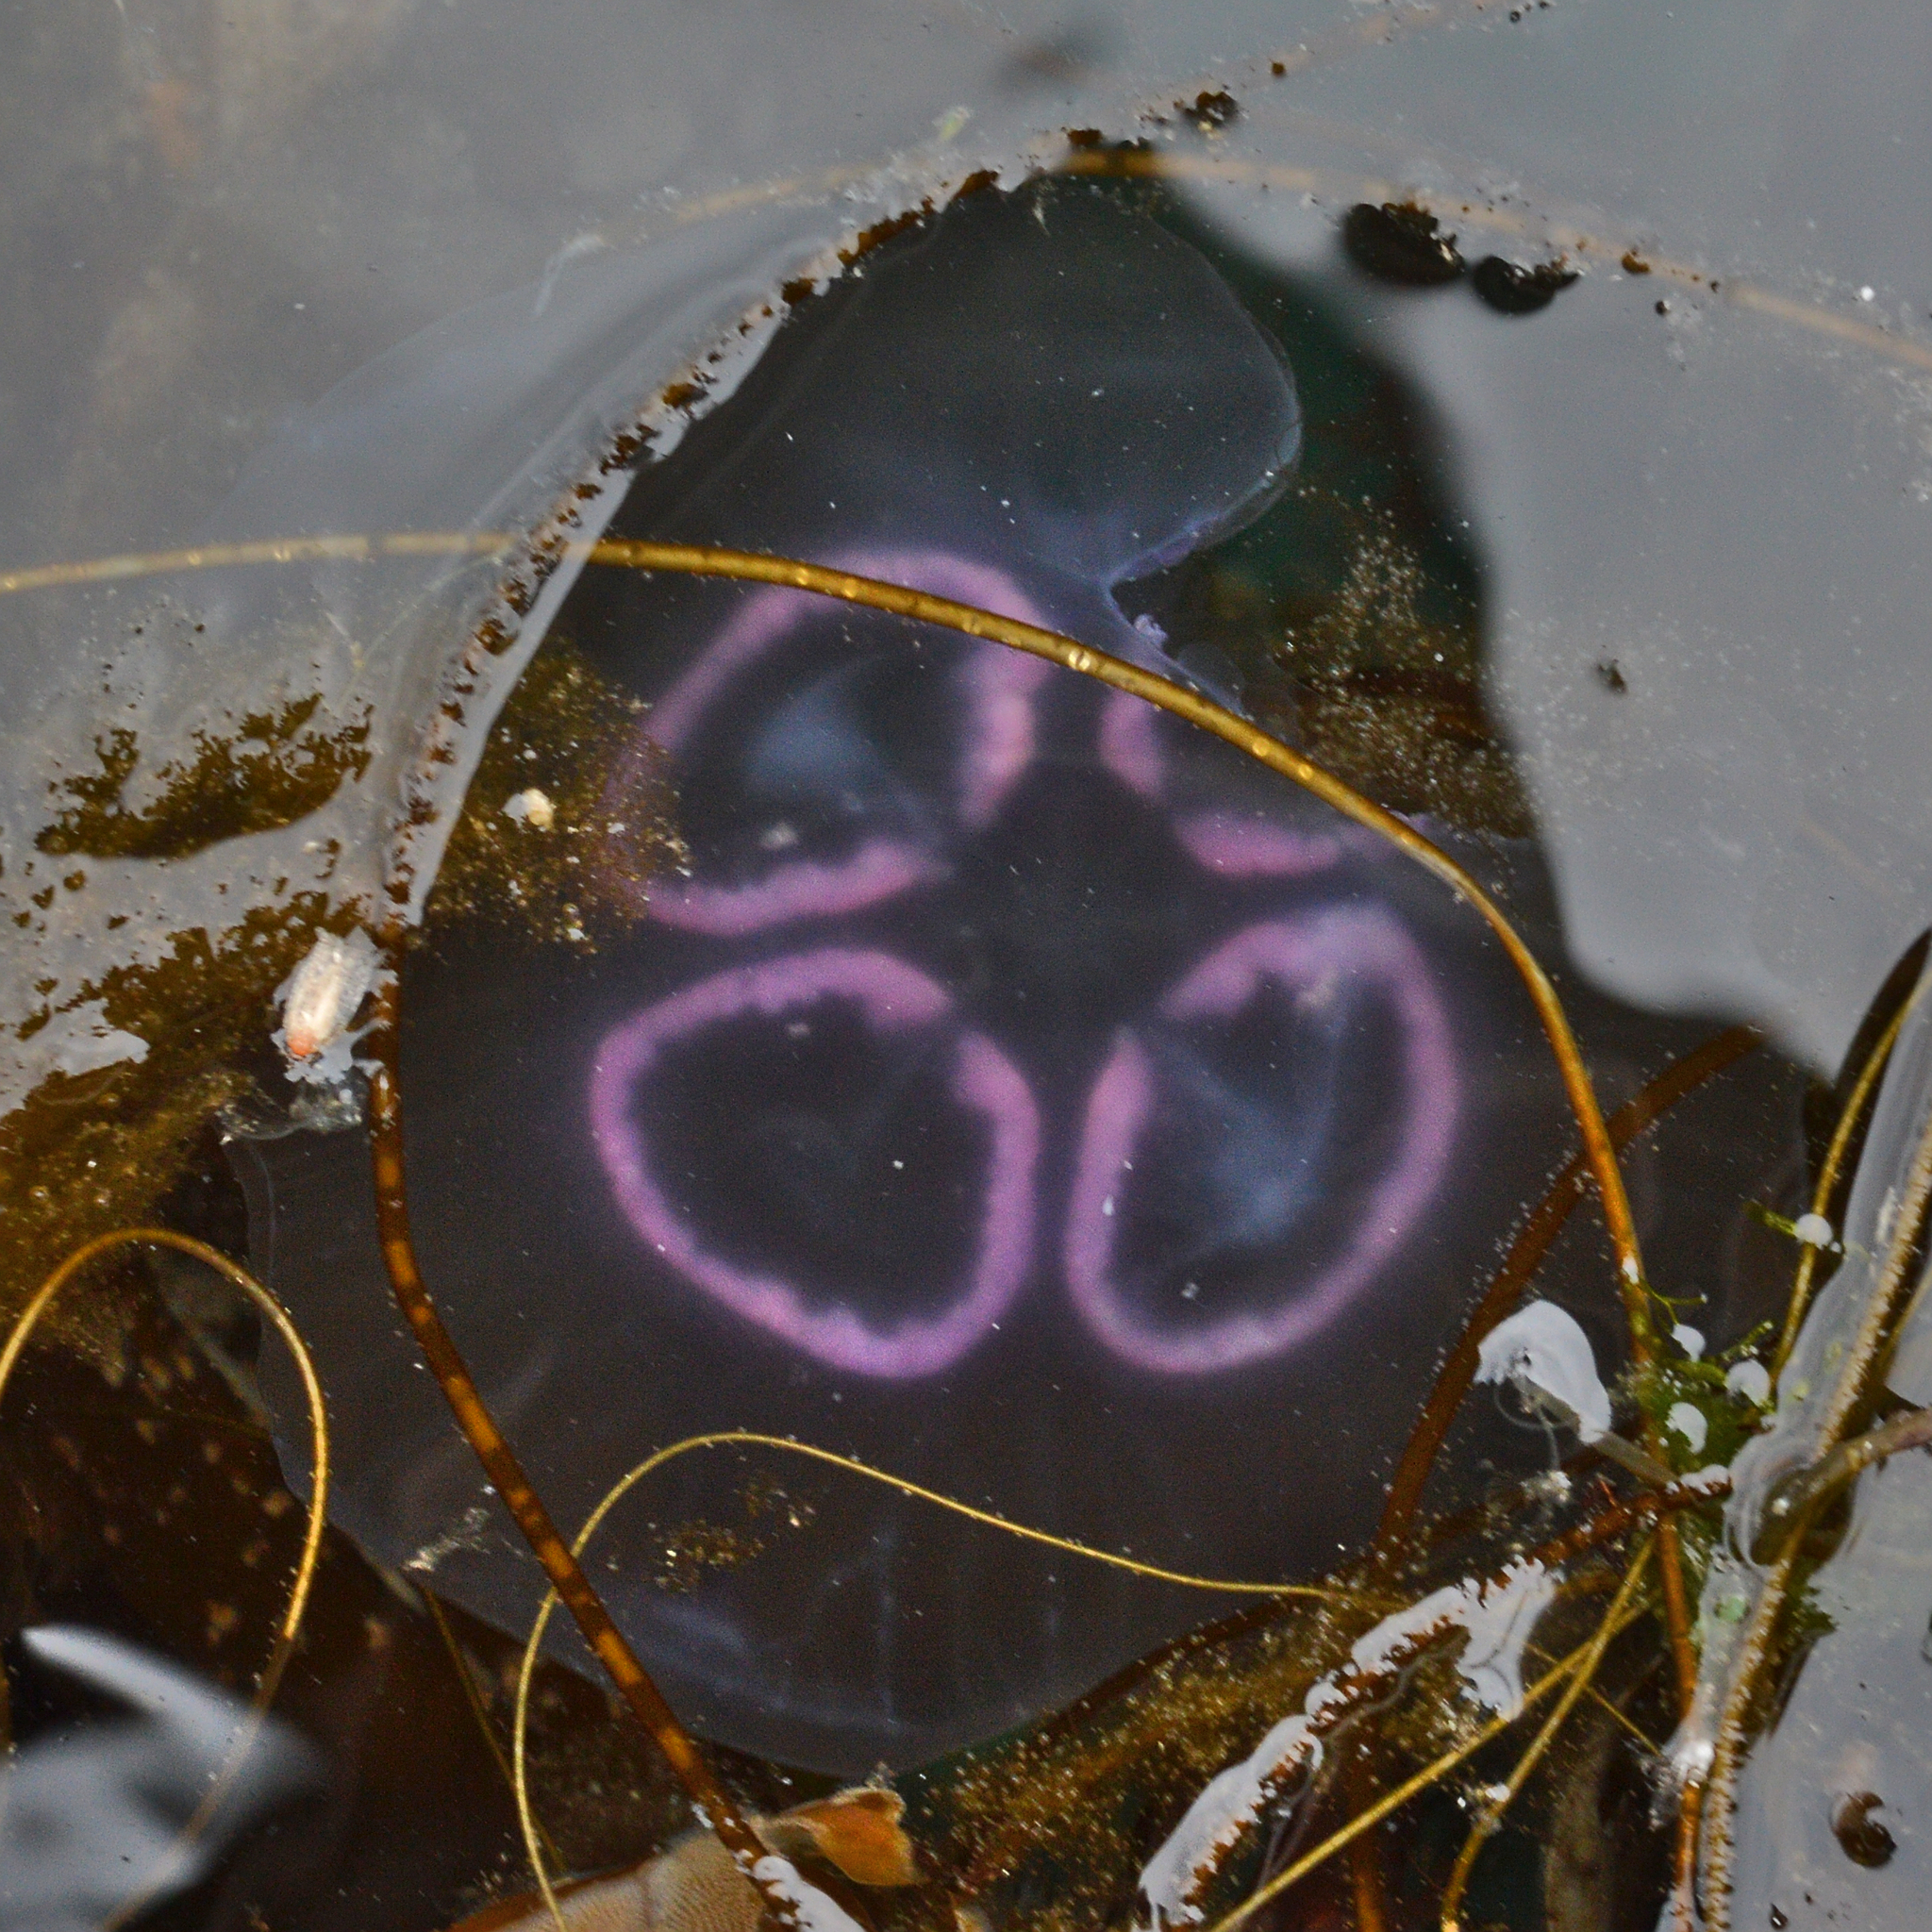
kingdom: Animalia
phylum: Cnidaria
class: Scyphozoa
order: Semaeostomeae
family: Ulmaridae
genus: Aurelia
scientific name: Aurelia aurita
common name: Moon jellyfish
